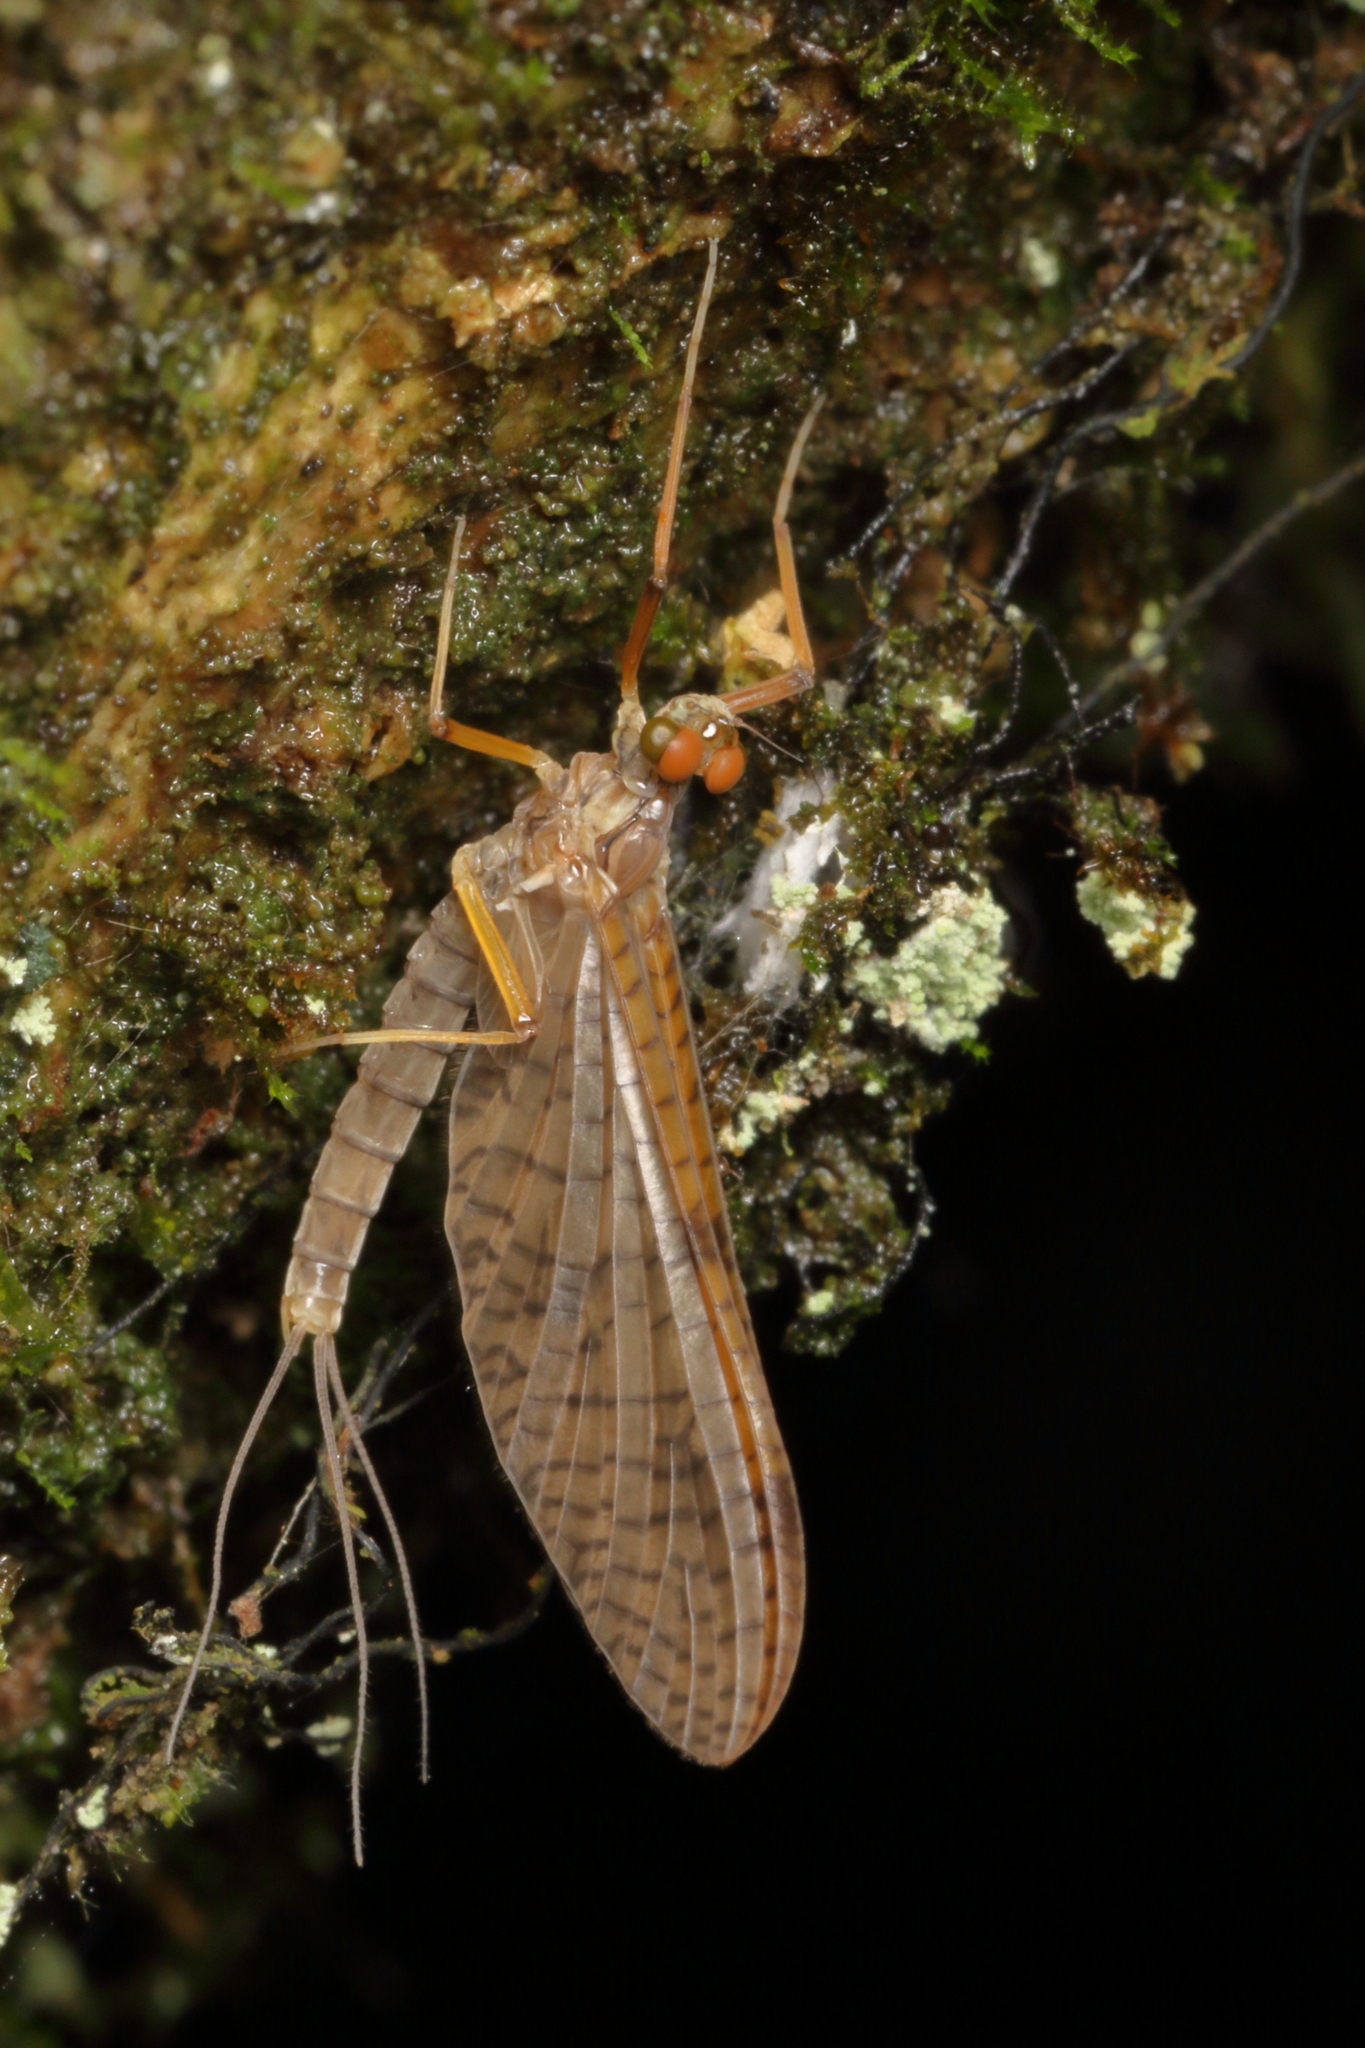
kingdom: Animalia
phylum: Arthropoda
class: Insecta
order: Ephemeroptera
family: Leptophlebiidae
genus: Zephlebia
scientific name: Zephlebia dentata
